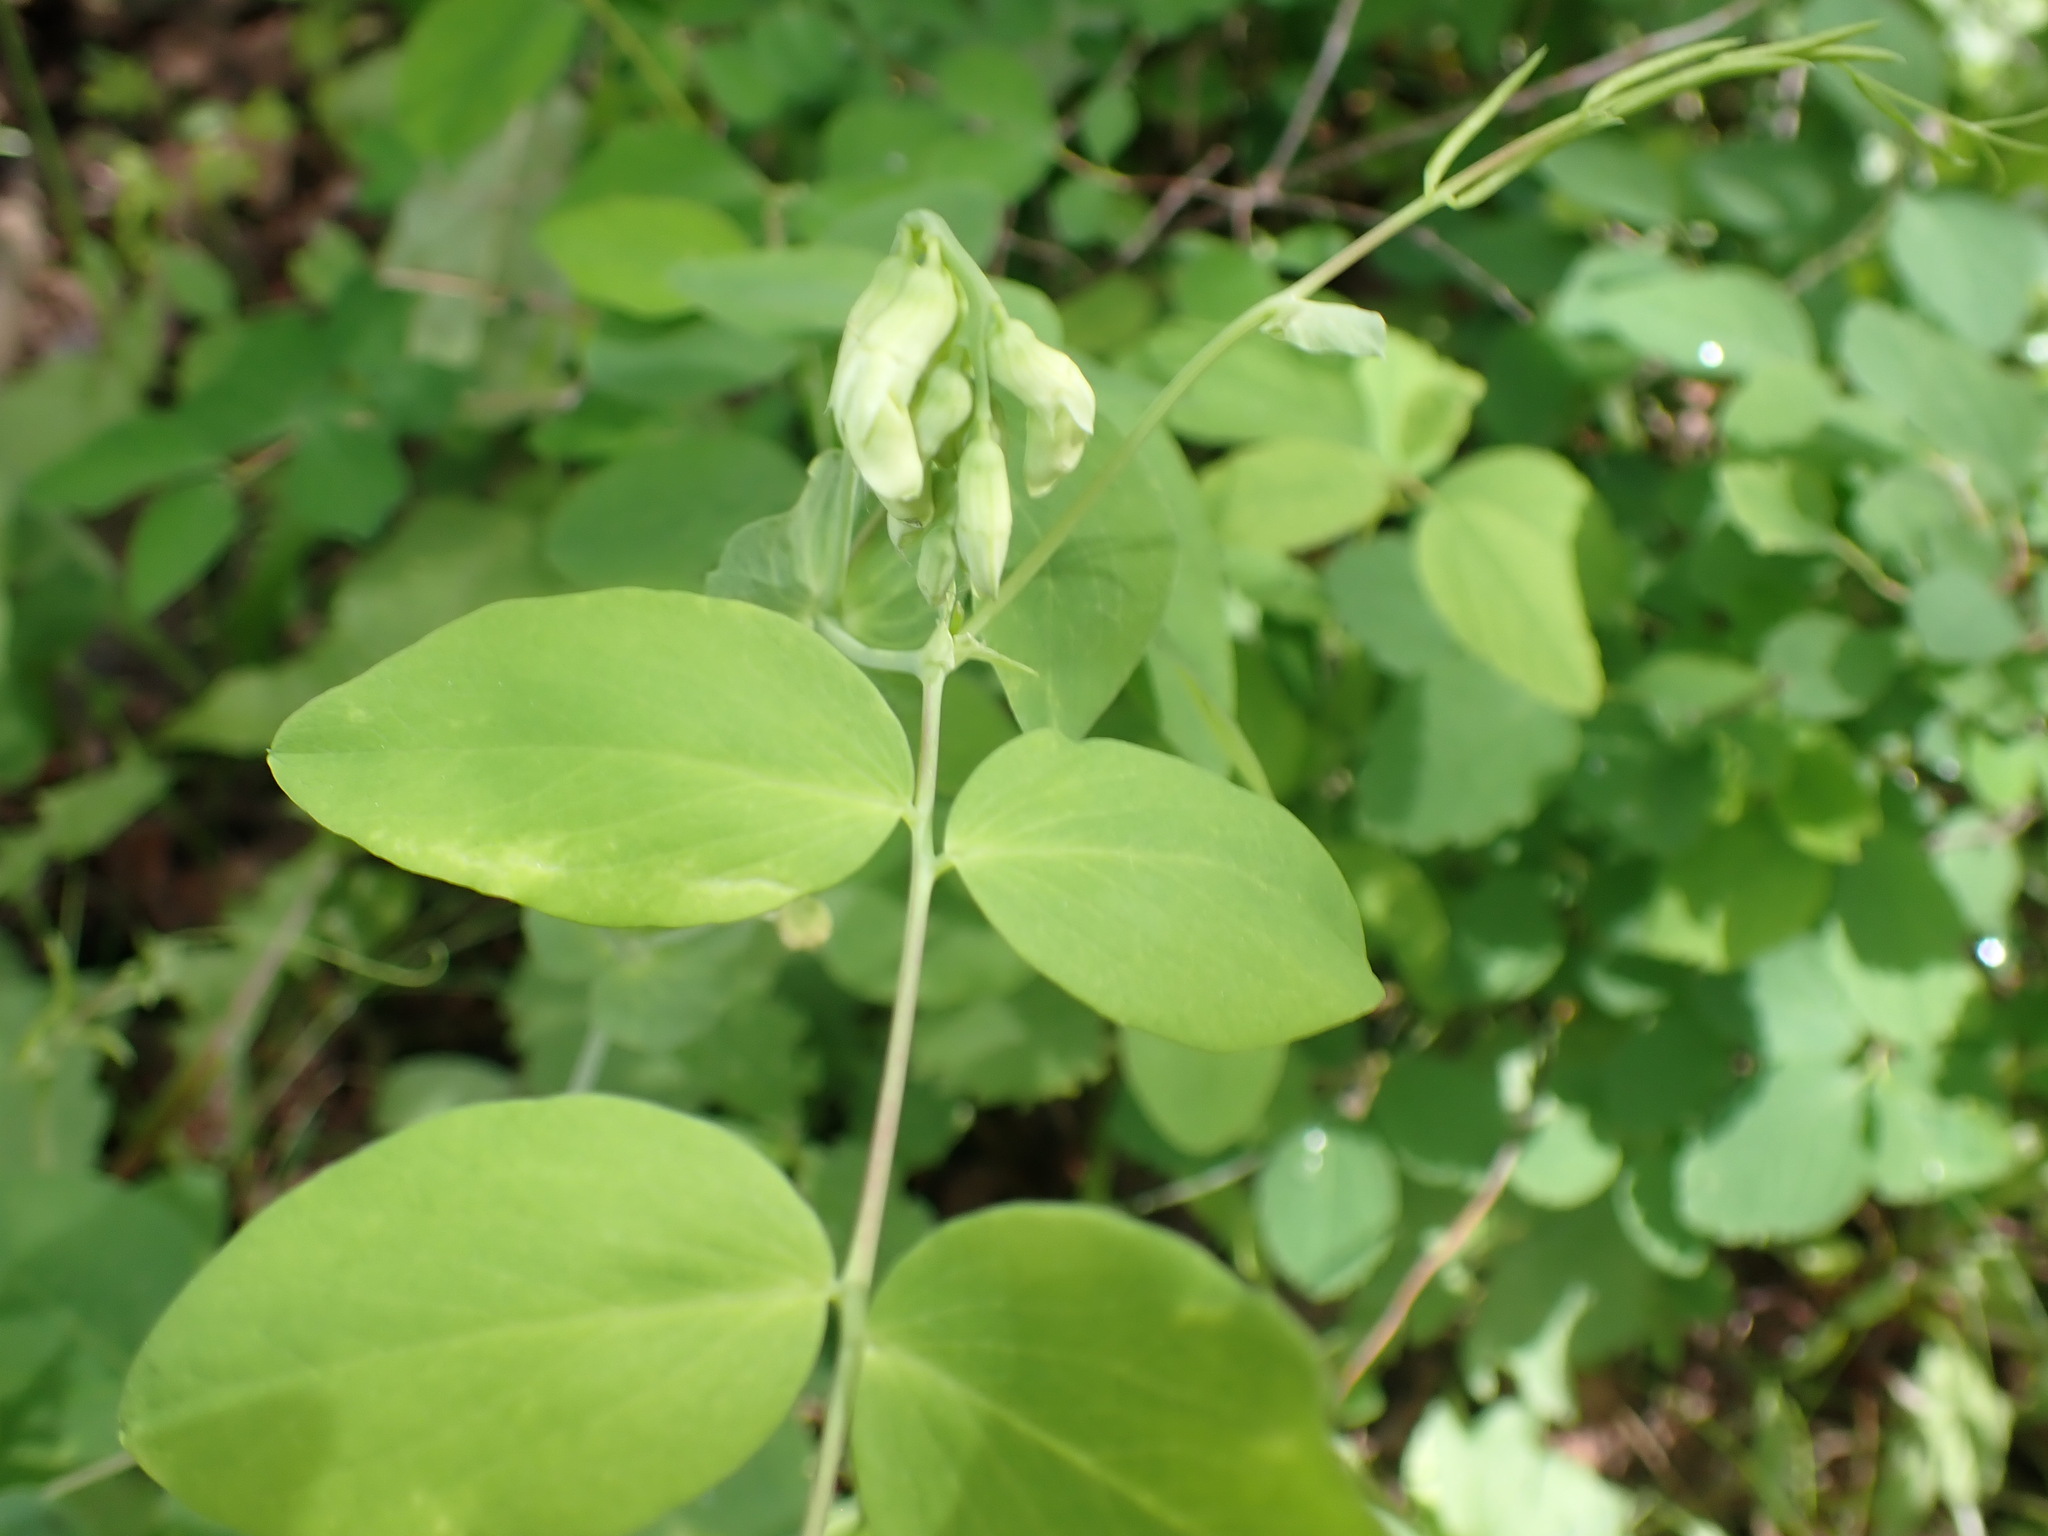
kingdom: Plantae
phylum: Tracheophyta
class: Magnoliopsida
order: Fabales
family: Fabaceae
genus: Lathyrus
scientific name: Lathyrus ochroleucus
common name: Pale vetchling
